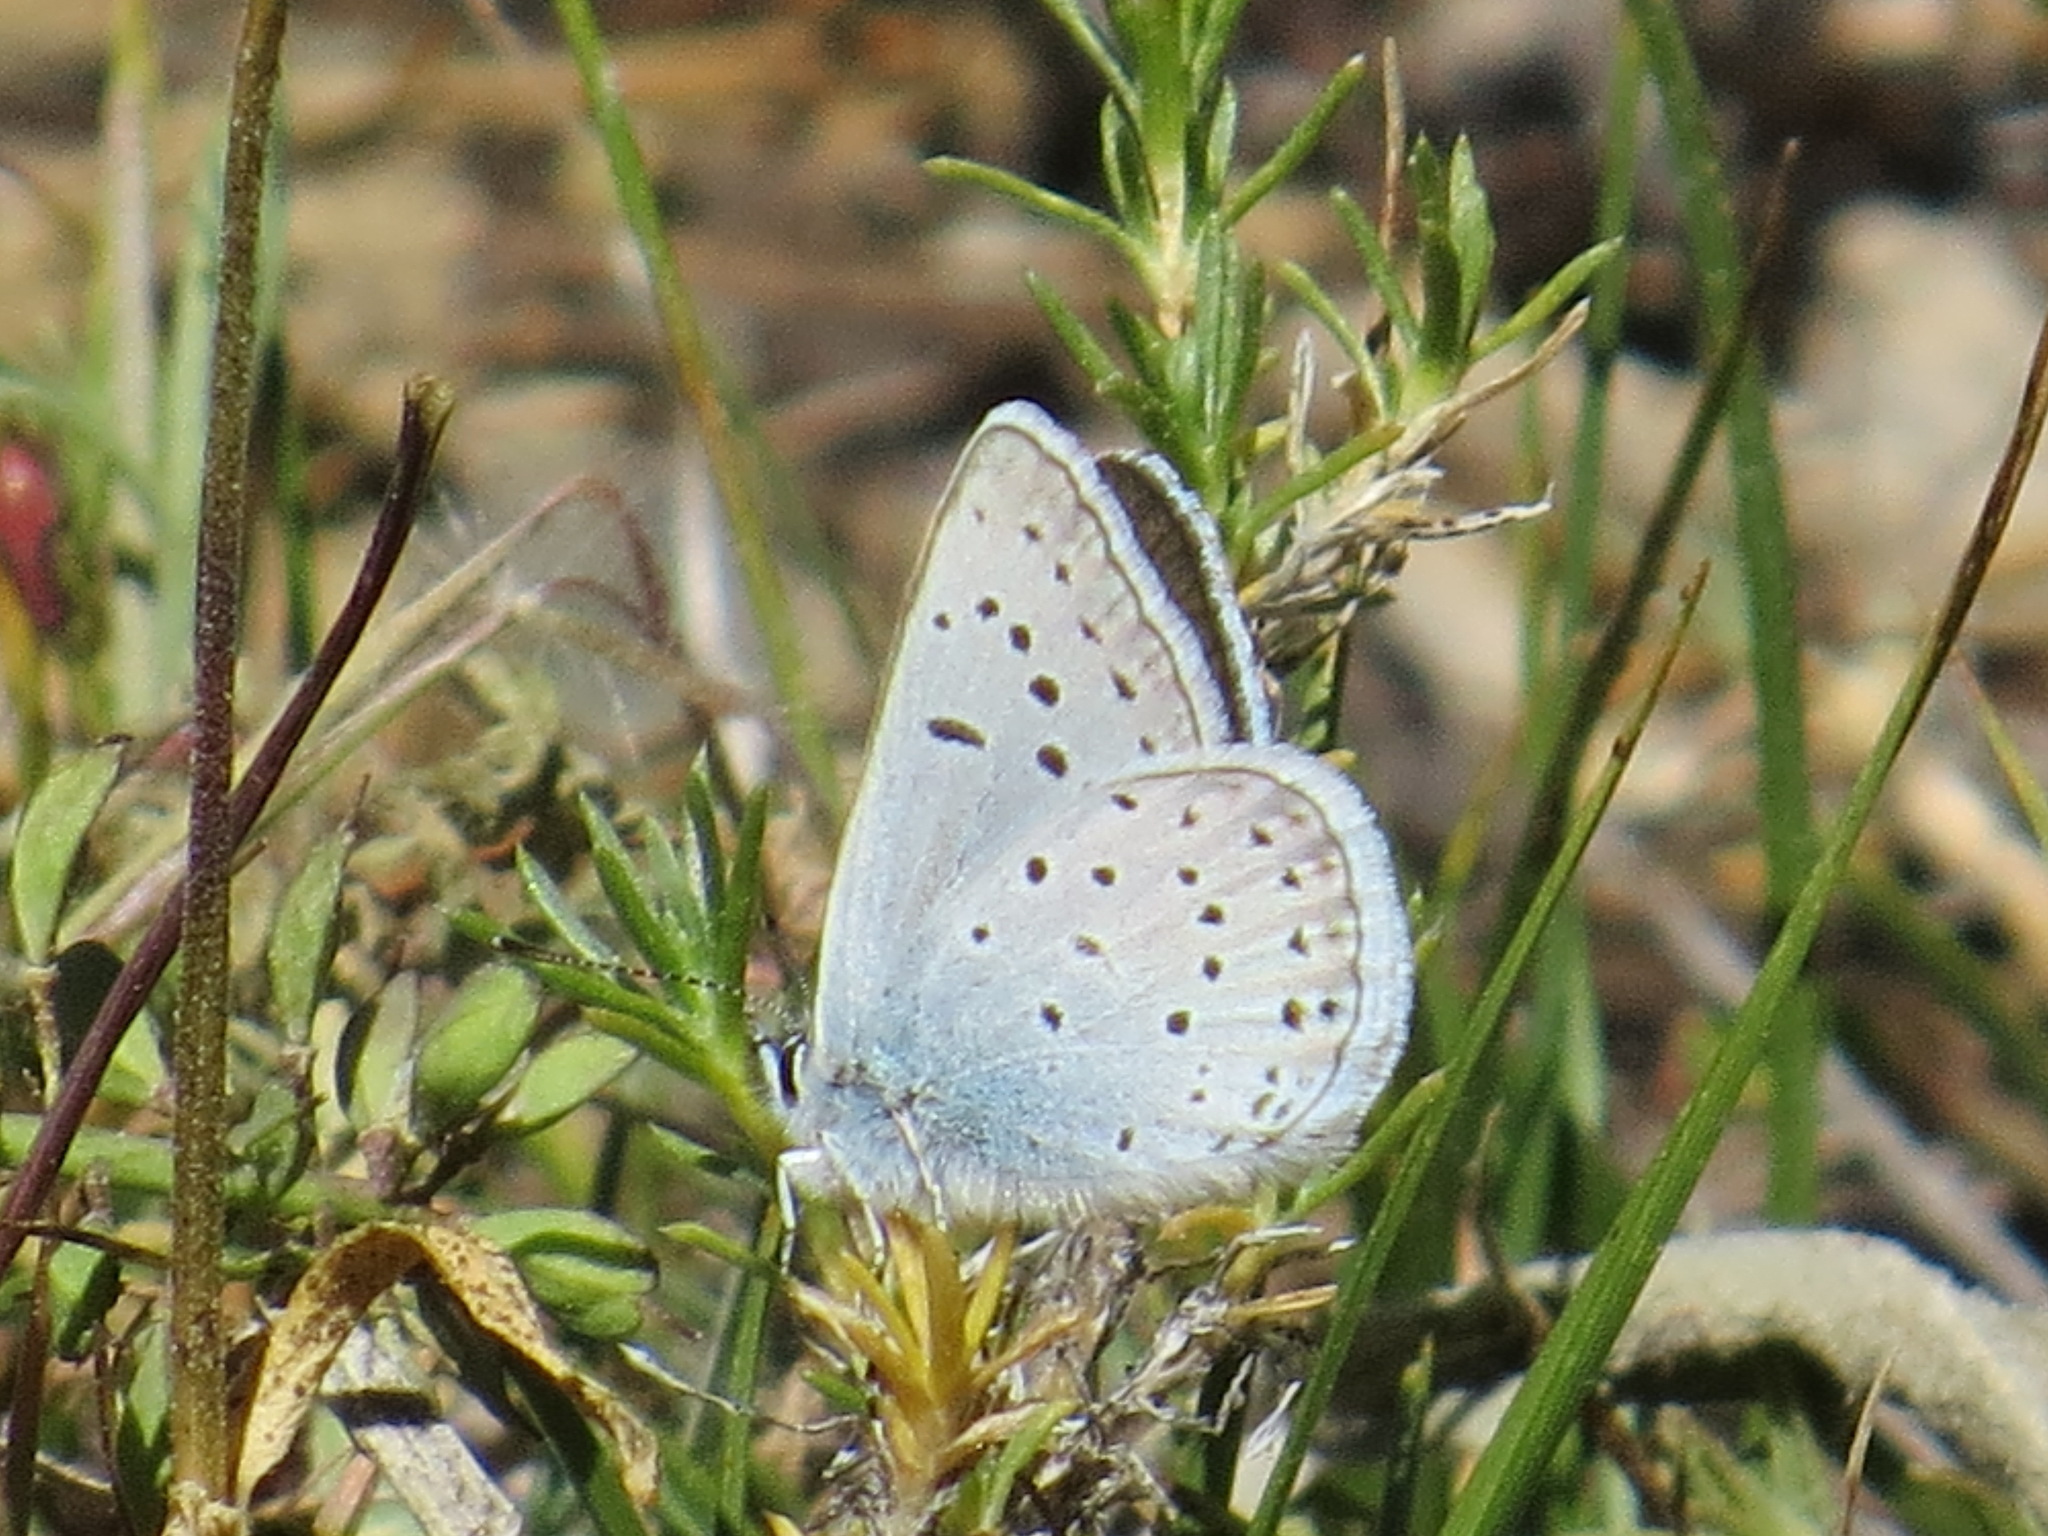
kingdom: Animalia
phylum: Arthropoda
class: Insecta
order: Lepidoptera
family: Lycaenidae
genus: Icaricia
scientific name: Icaricia saepiolus
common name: Greenish blue
